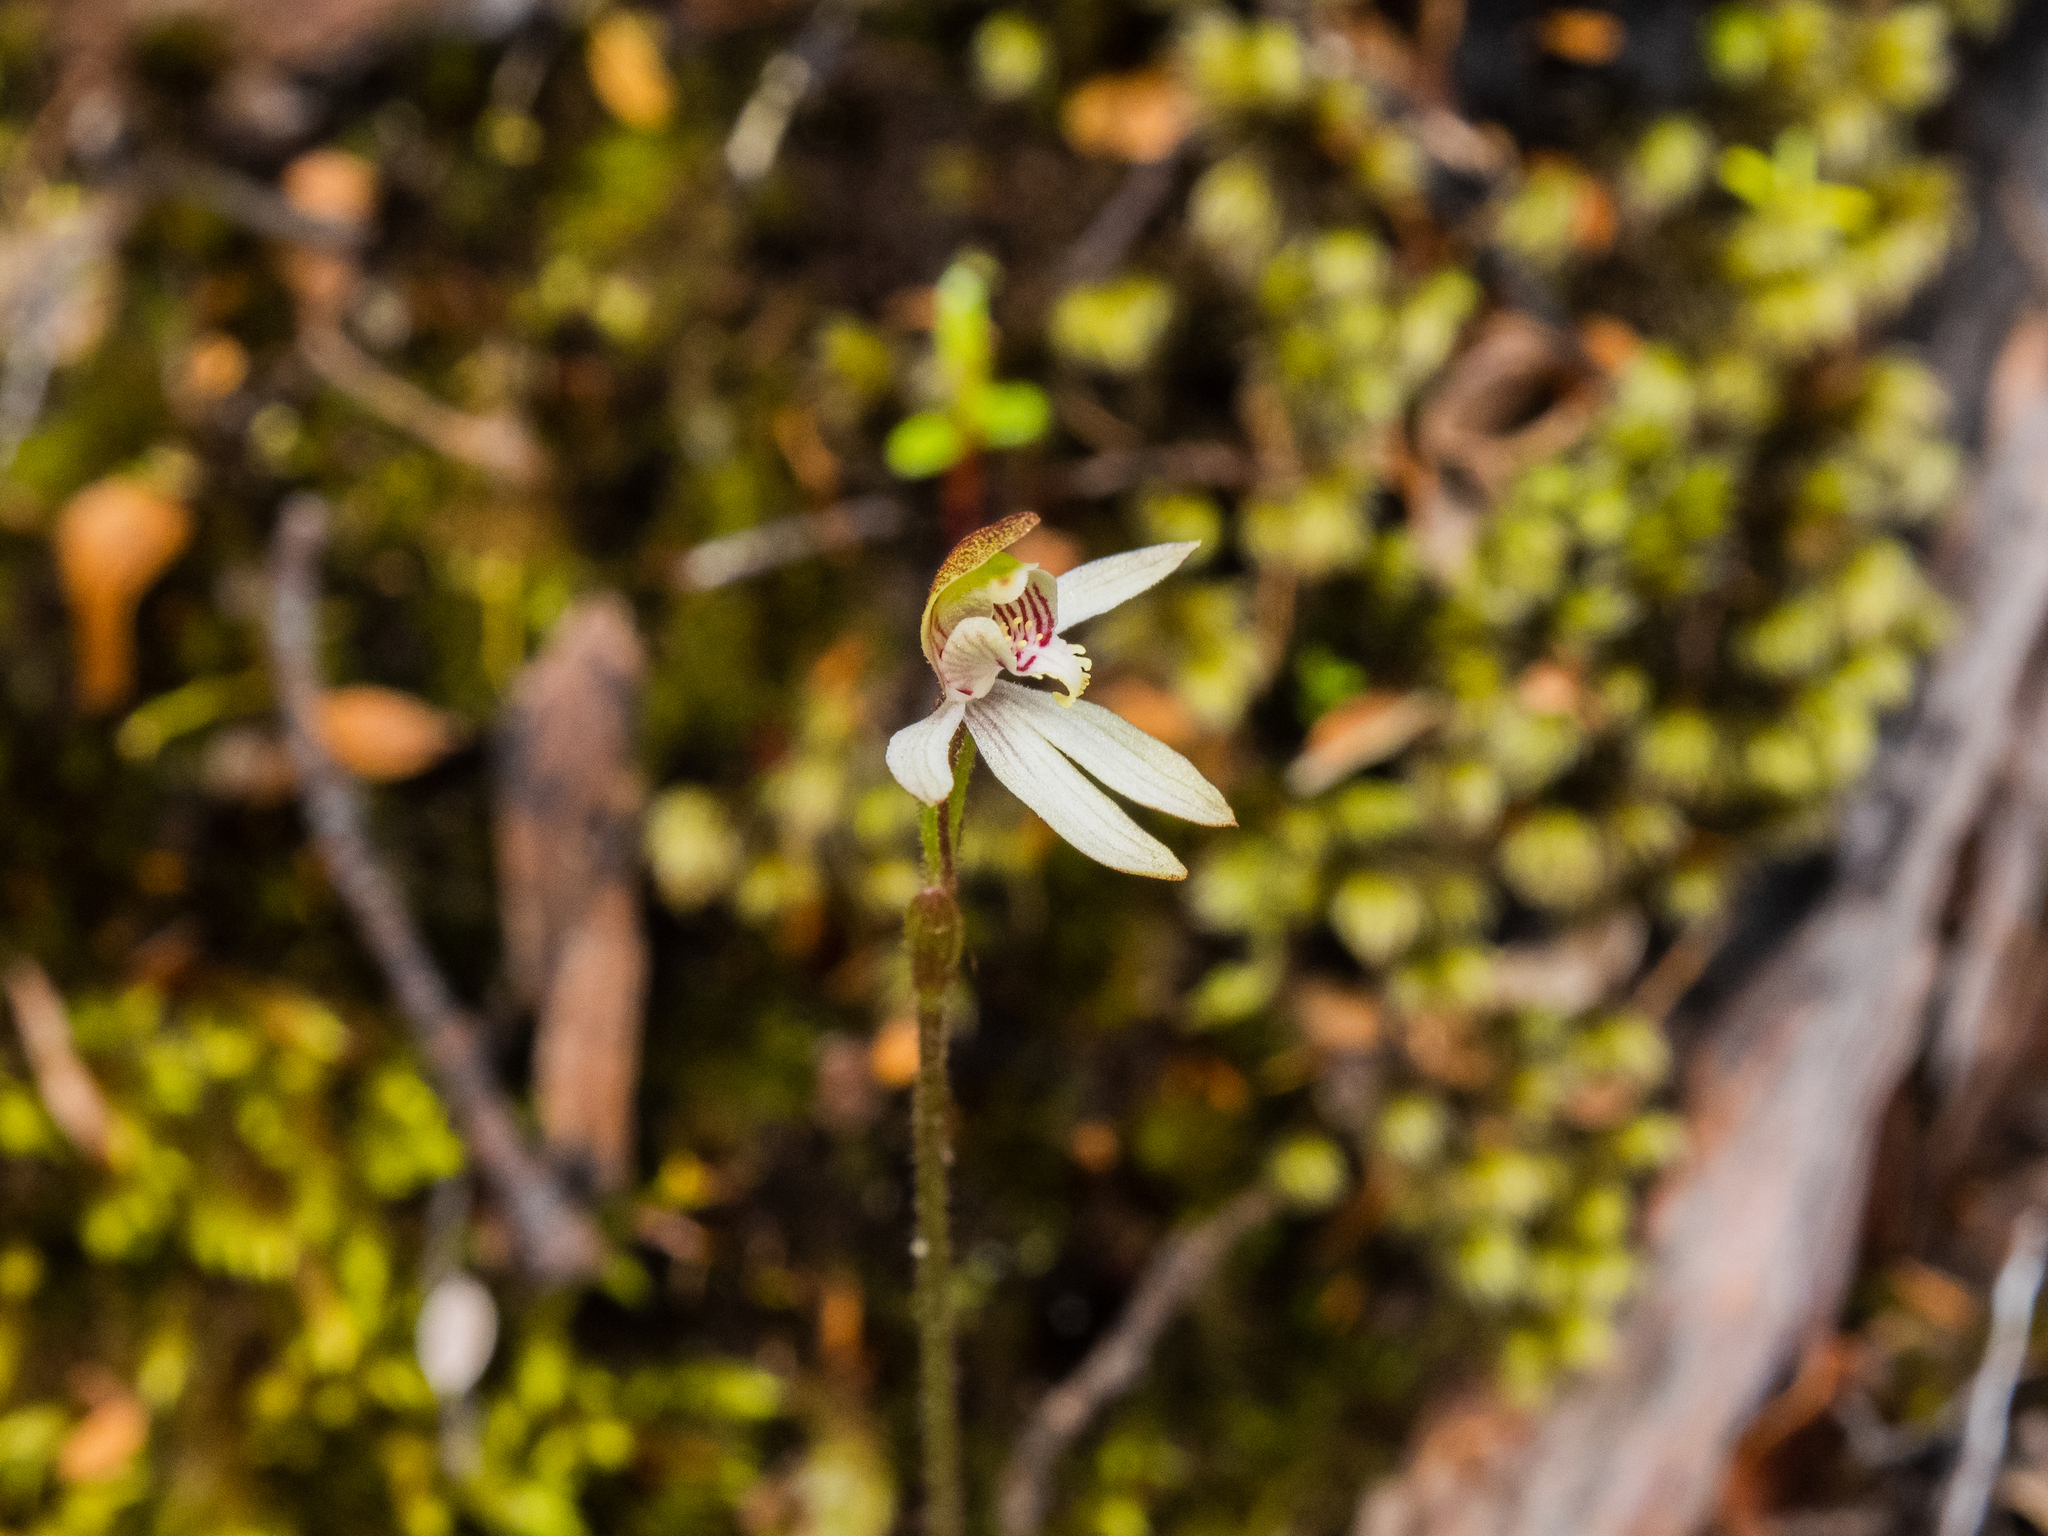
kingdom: Plantae
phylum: Tracheophyta
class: Liliopsida
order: Asparagales
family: Orchidaceae
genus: Caladenia
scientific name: Caladenia chlorostyla
